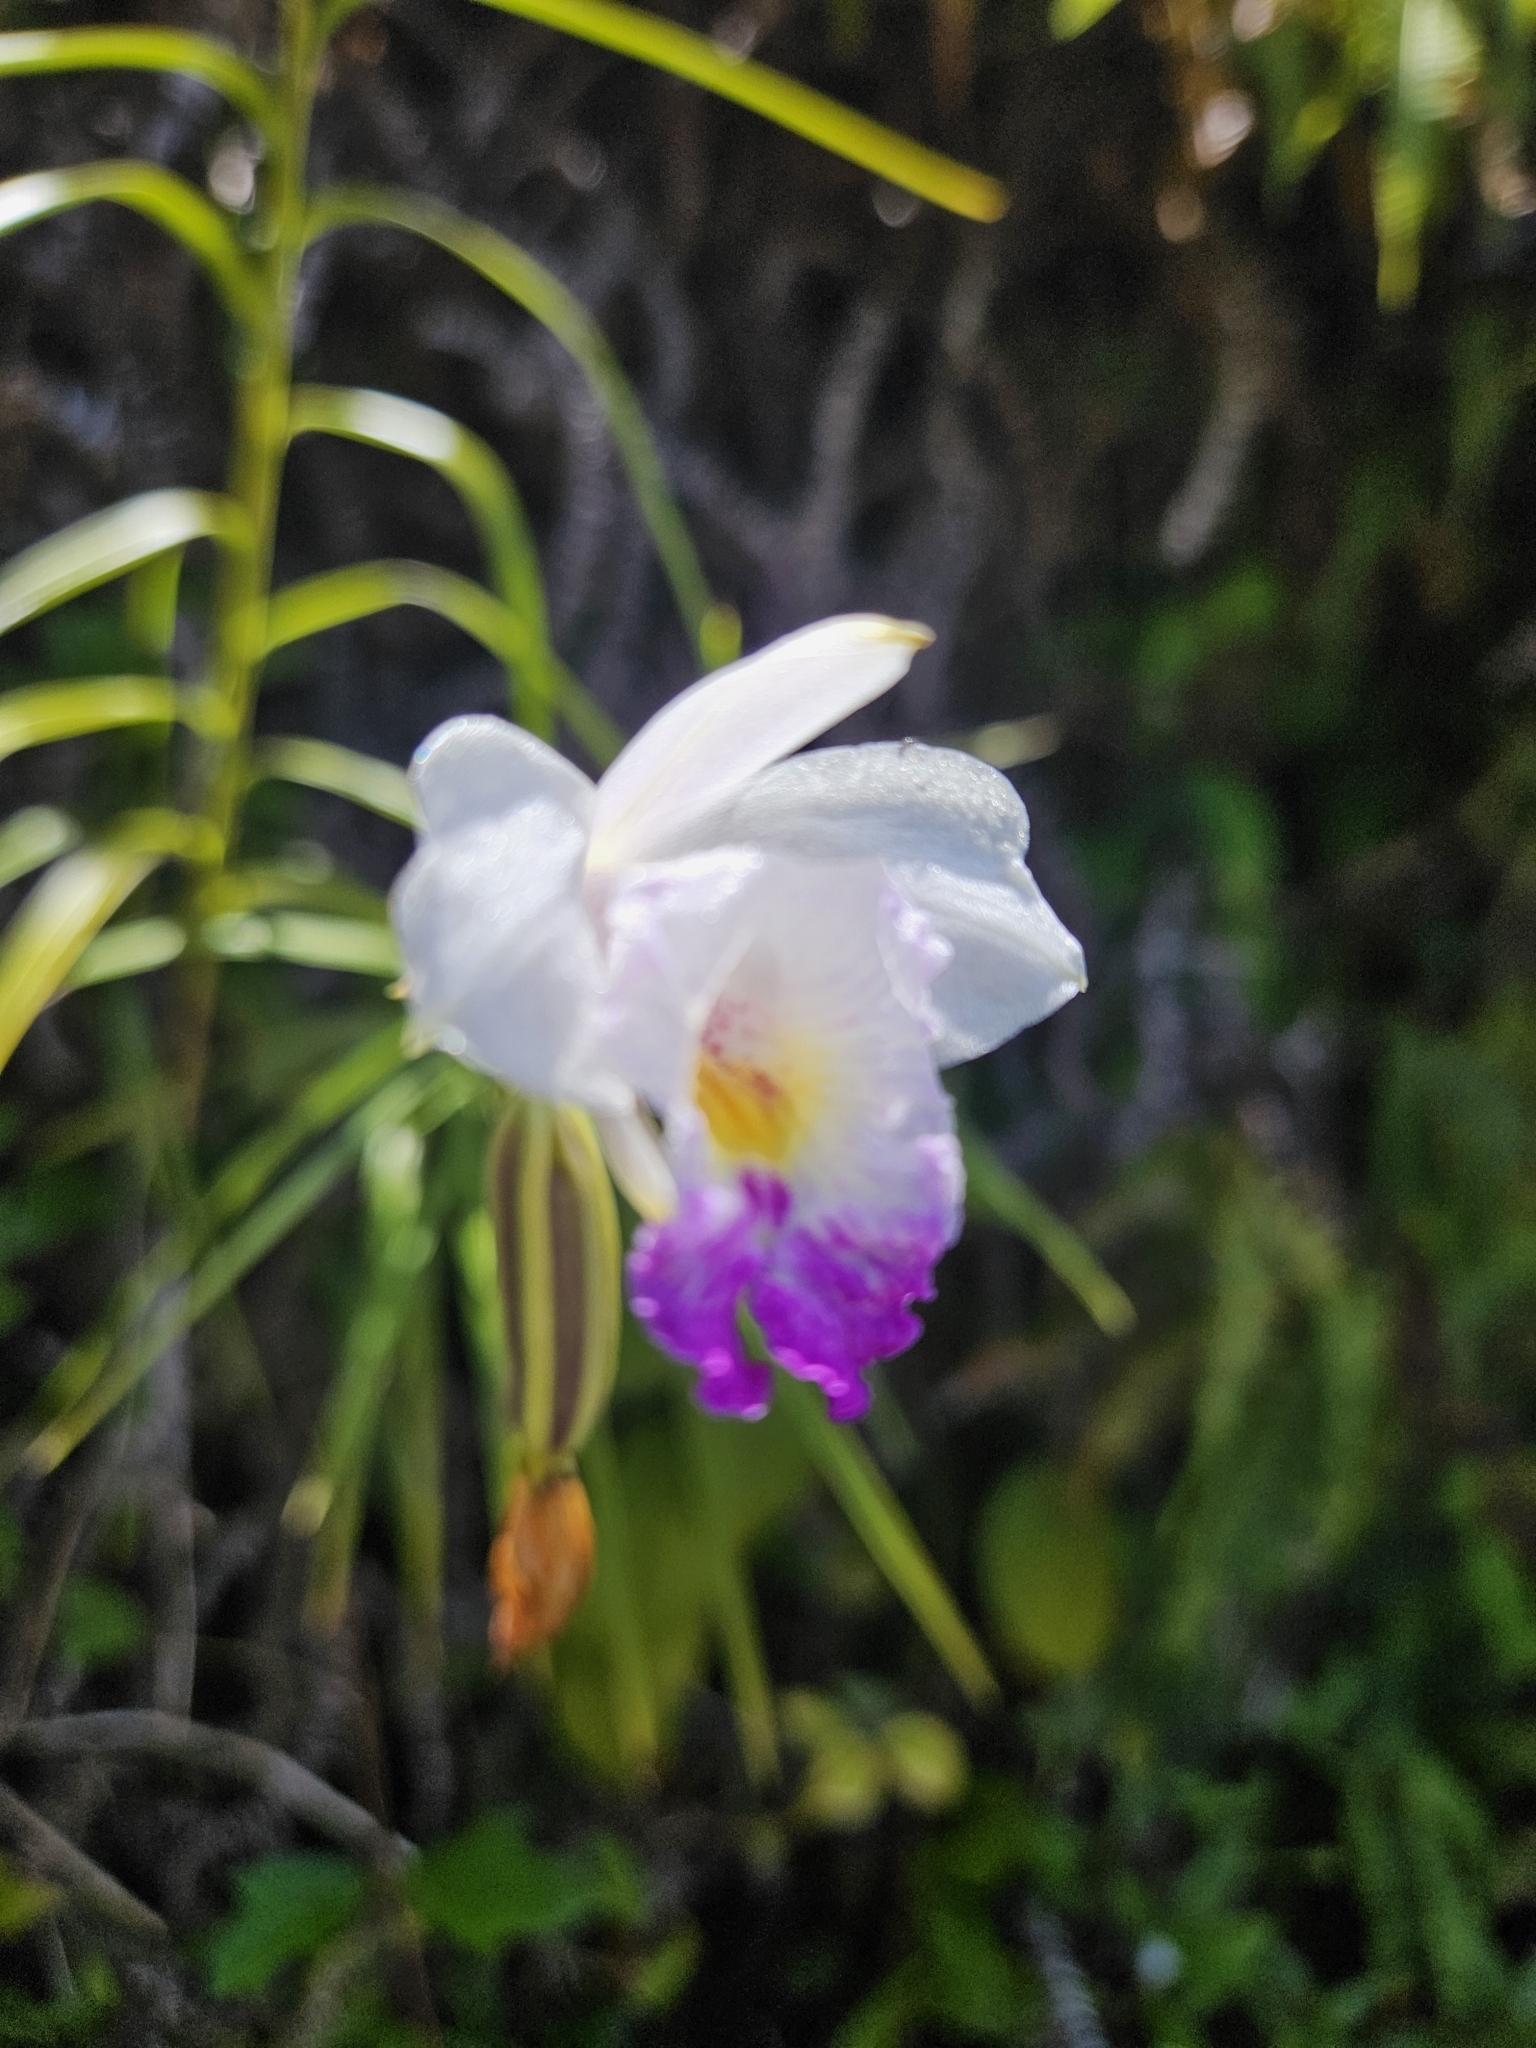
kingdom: Plantae
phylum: Tracheophyta
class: Liliopsida
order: Asparagales
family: Orchidaceae
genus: Arundina
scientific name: Arundina graminifolia
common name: Bamboo orchid
